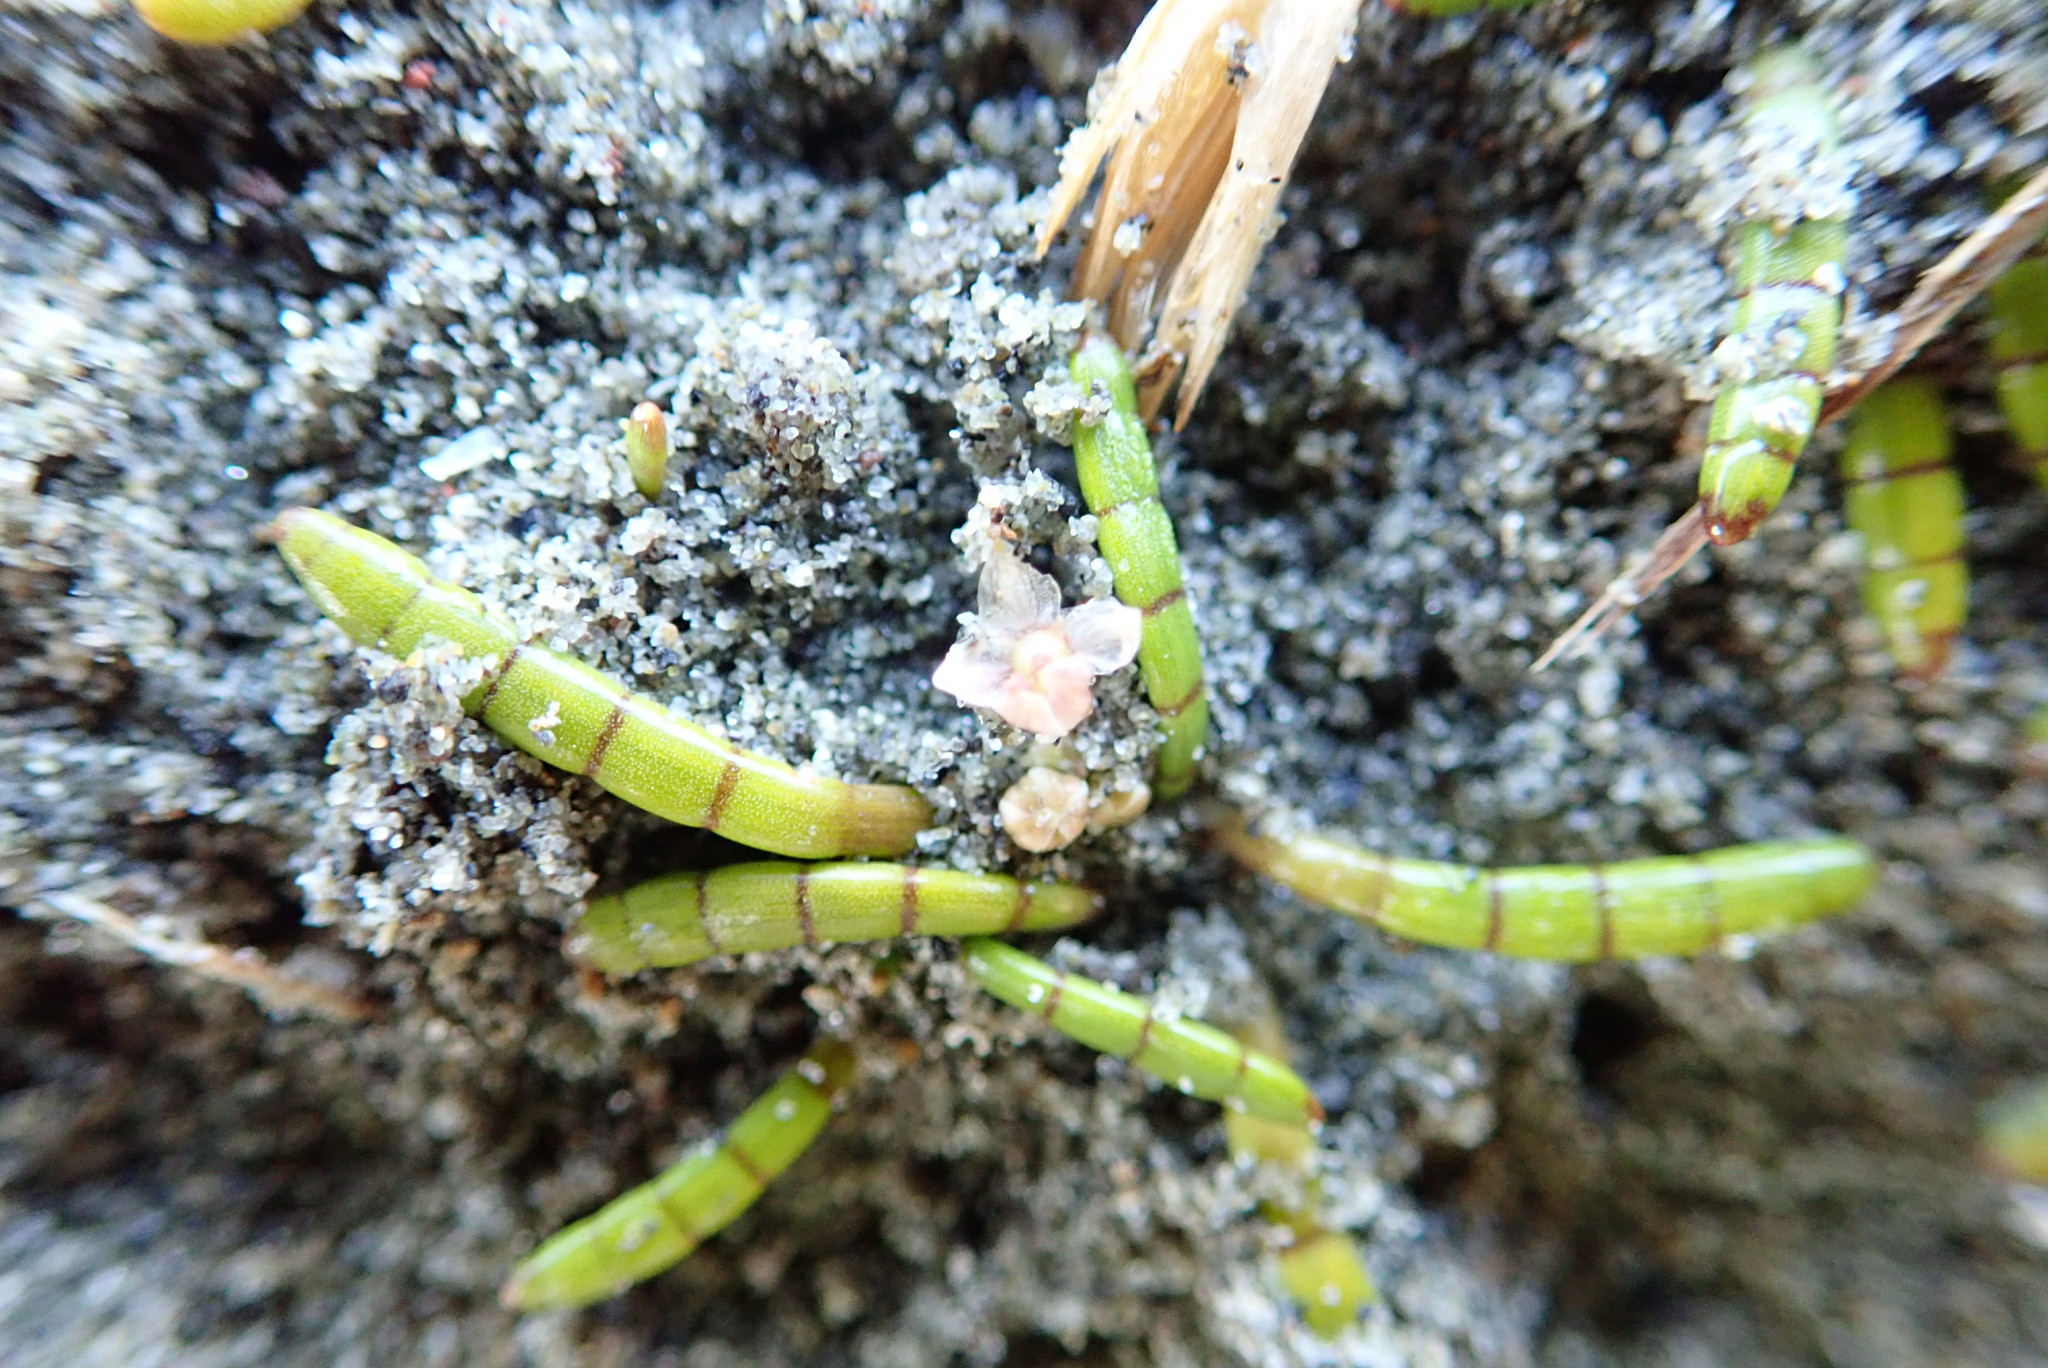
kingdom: Plantae
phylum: Tracheophyta
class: Magnoliopsida
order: Apiales
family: Apiaceae
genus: Lilaeopsis
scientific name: Lilaeopsis novae-zelandiae
